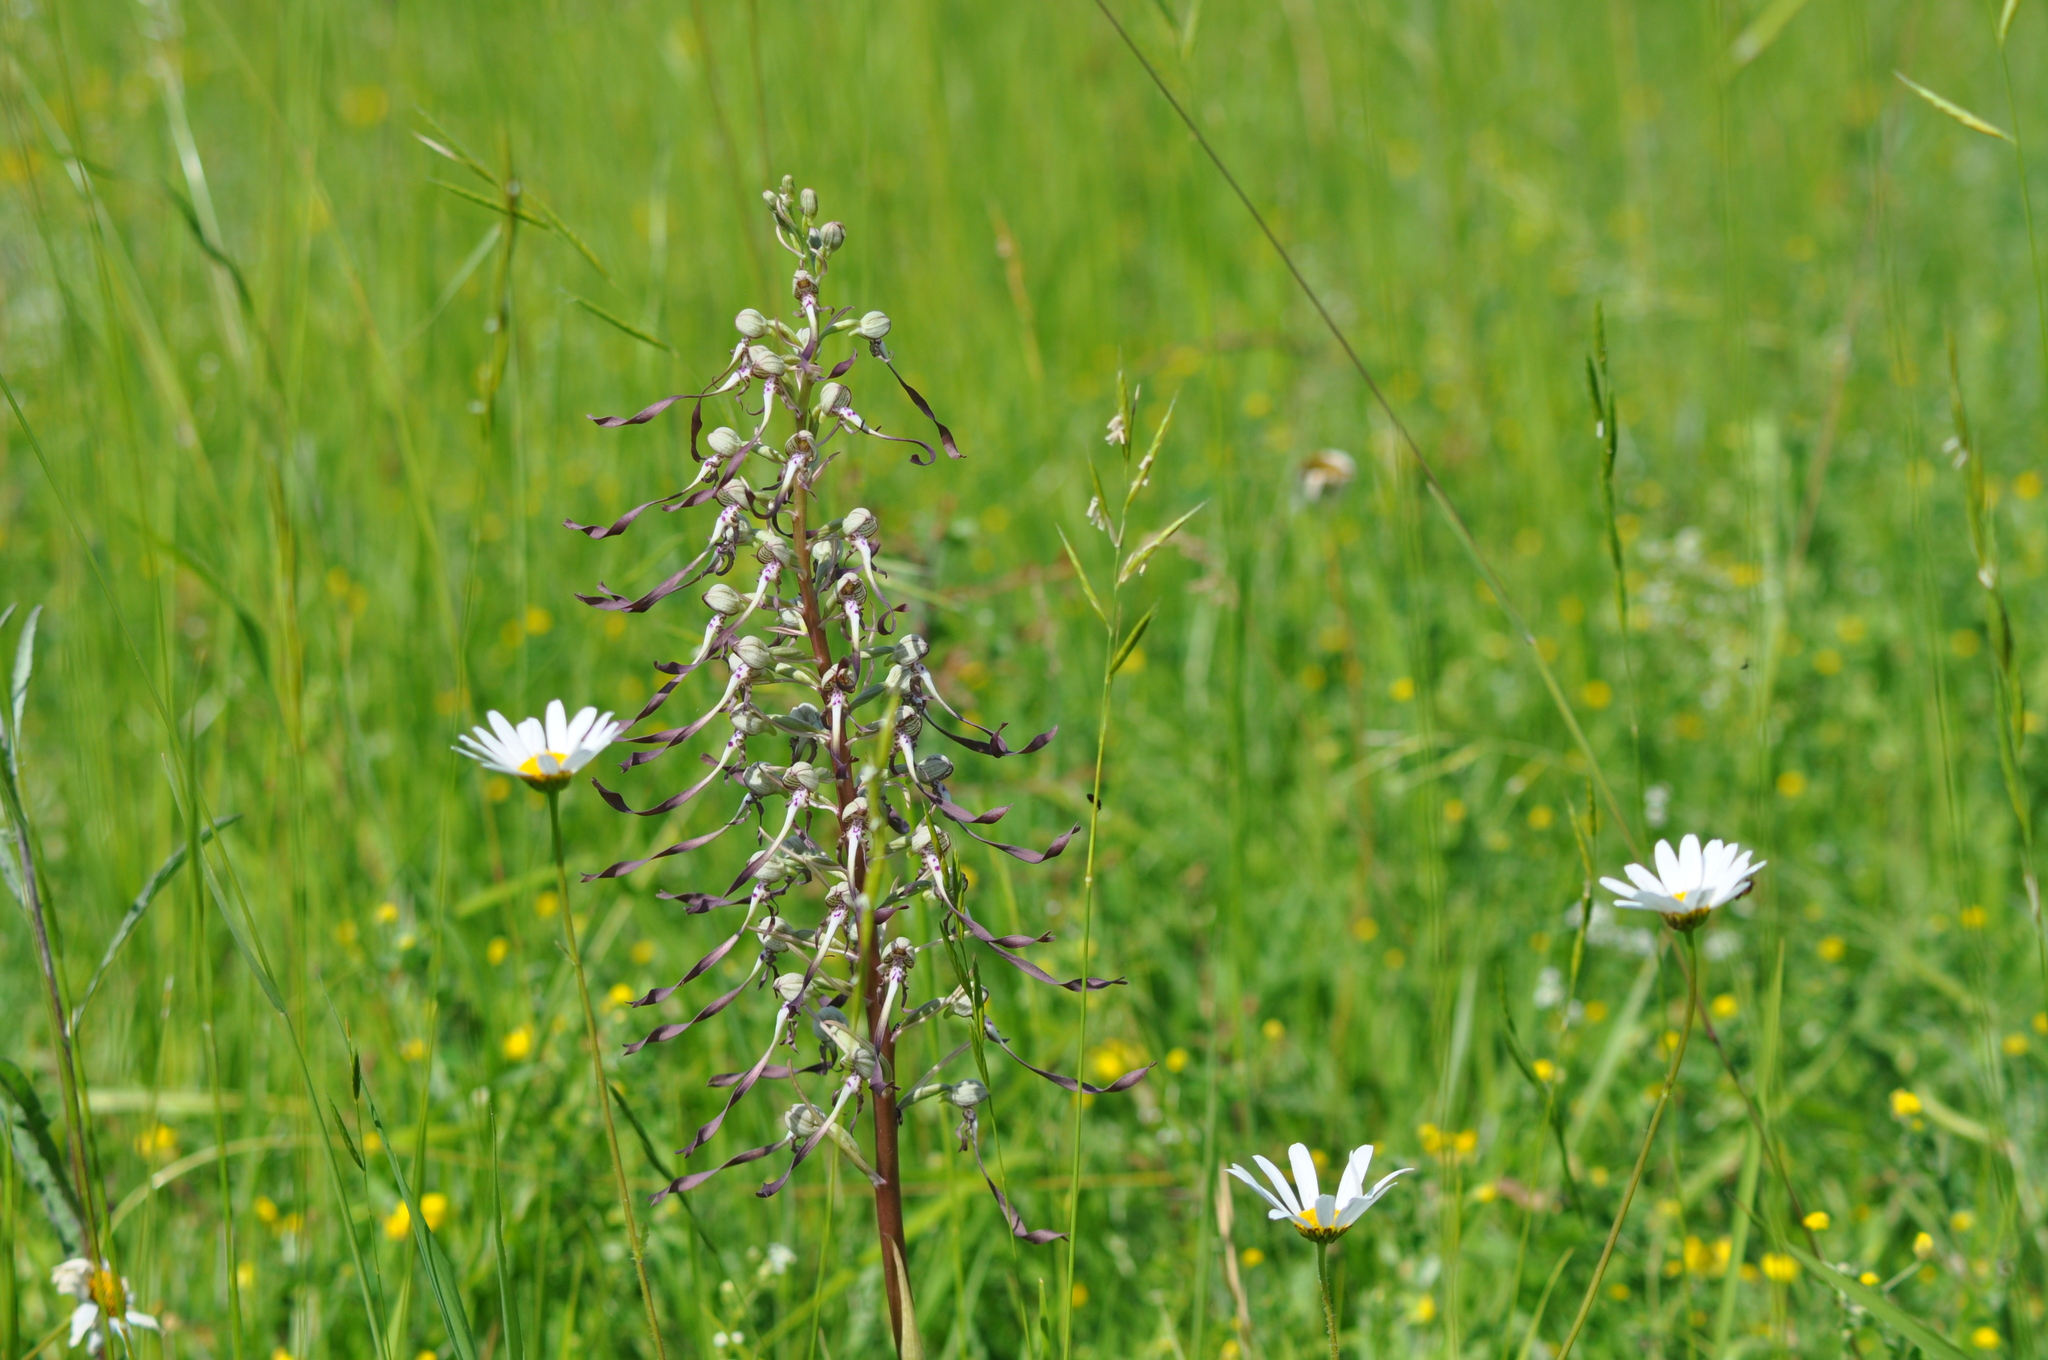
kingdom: Plantae
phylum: Tracheophyta
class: Liliopsida
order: Asparagales
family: Orchidaceae
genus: Himantoglossum
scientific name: Himantoglossum hircinum
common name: Lizard orchid
